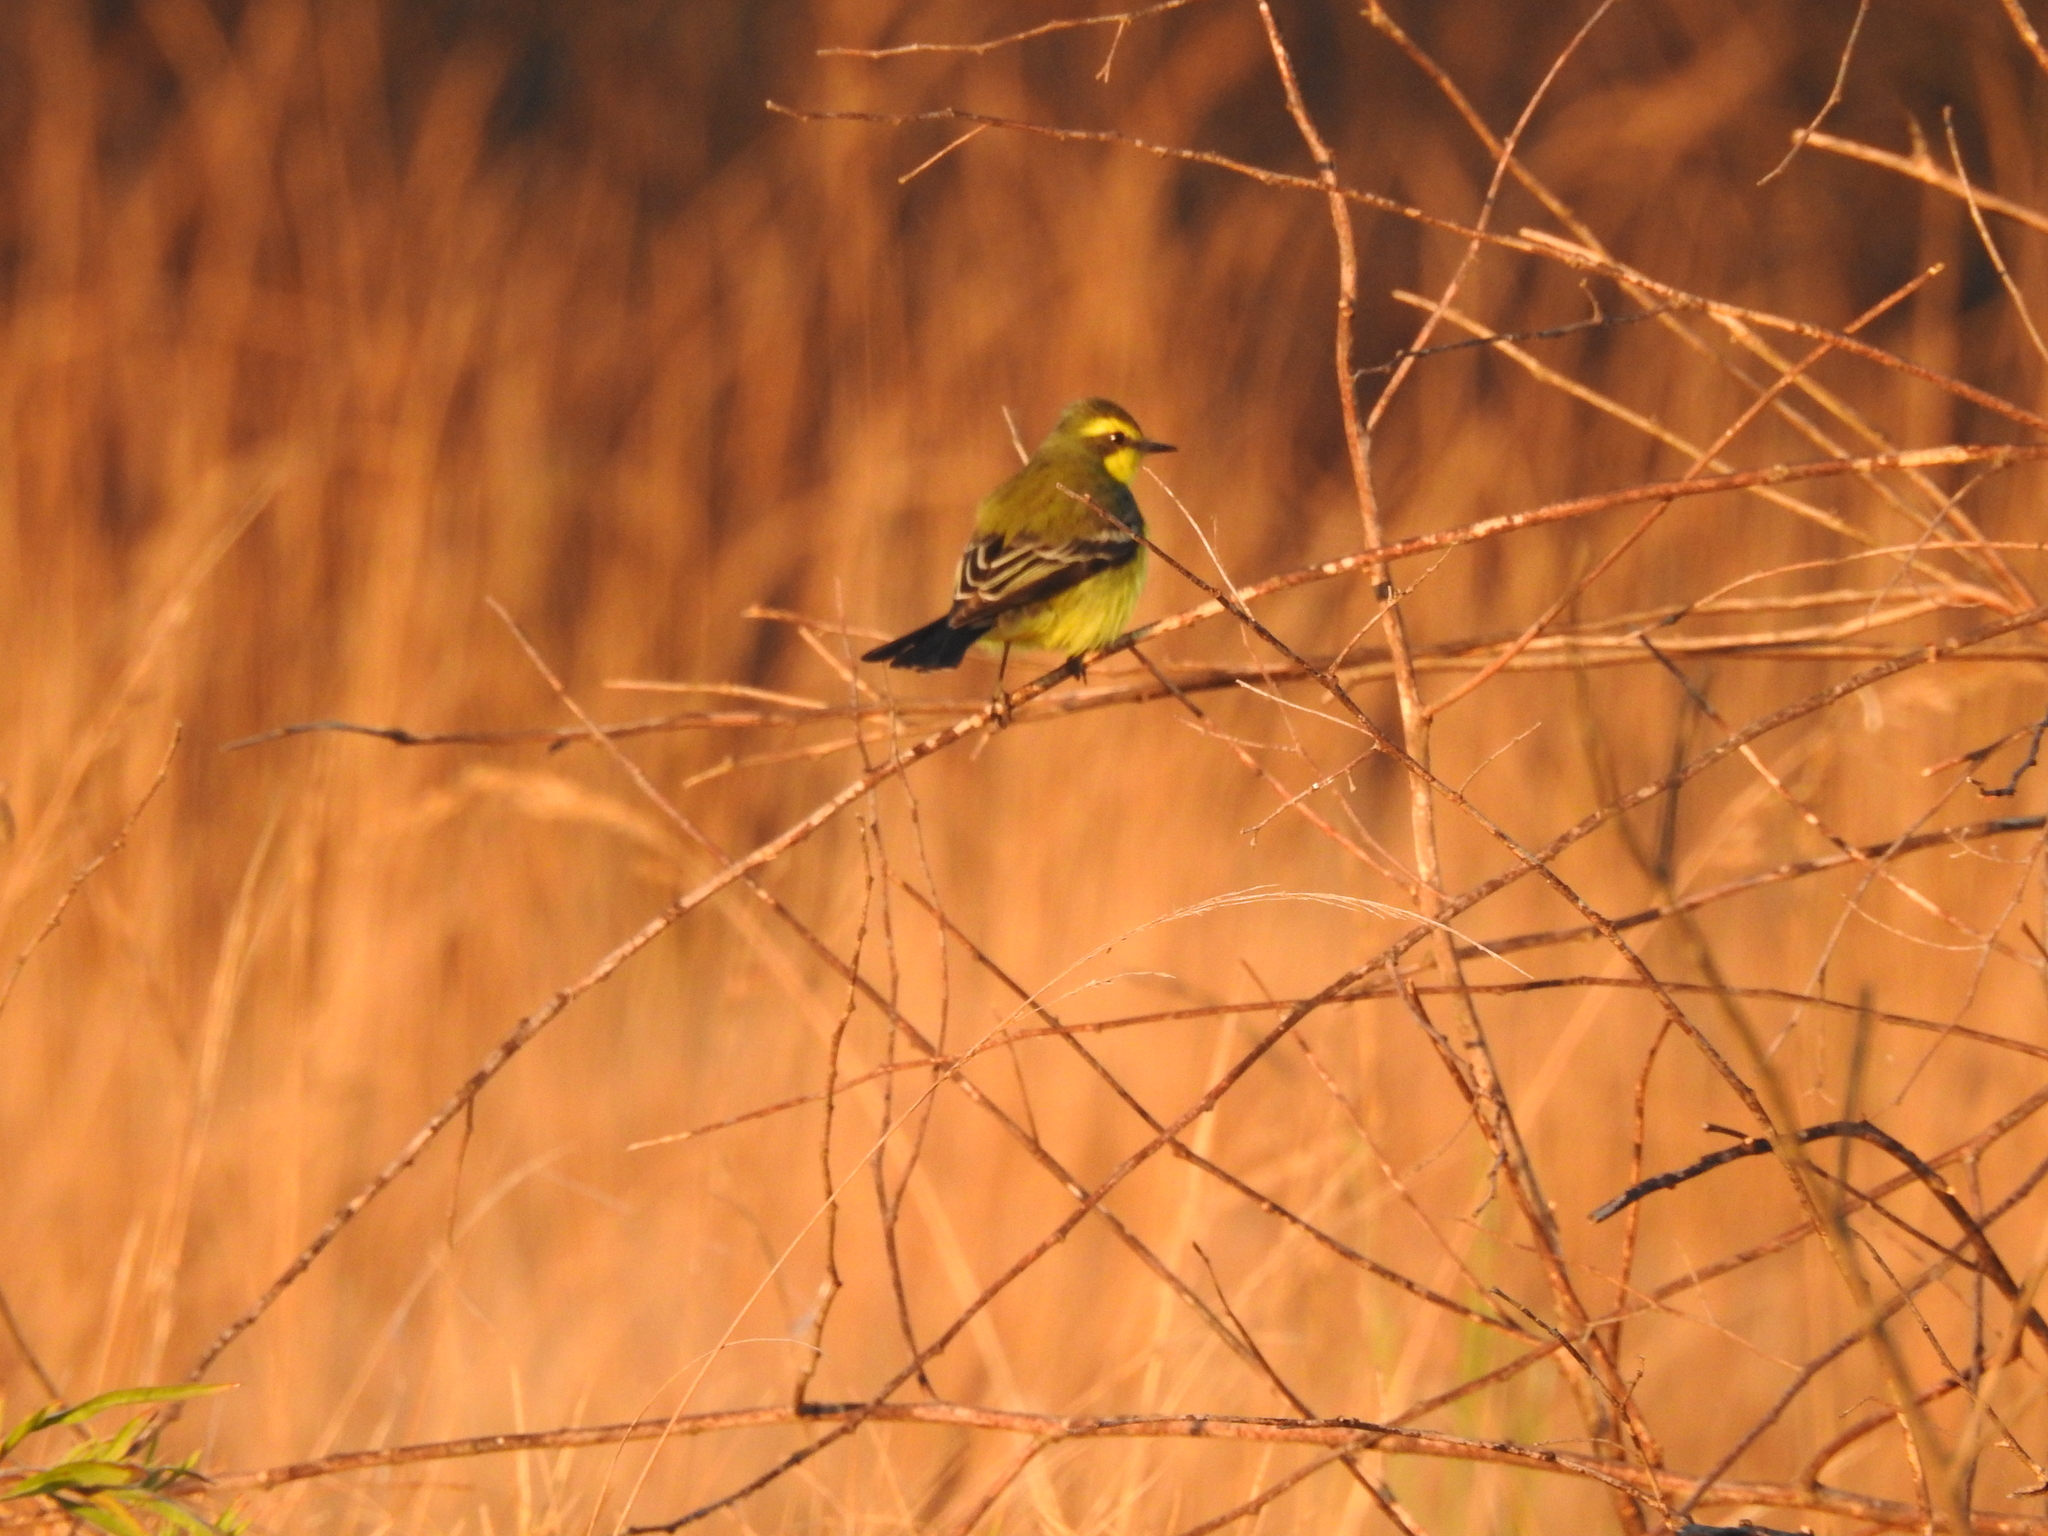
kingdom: Animalia
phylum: Chordata
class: Aves
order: Passeriformes
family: Tyrannidae
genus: Satrapa
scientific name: Satrapa icterophrys
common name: Yellow-browed tyrant
